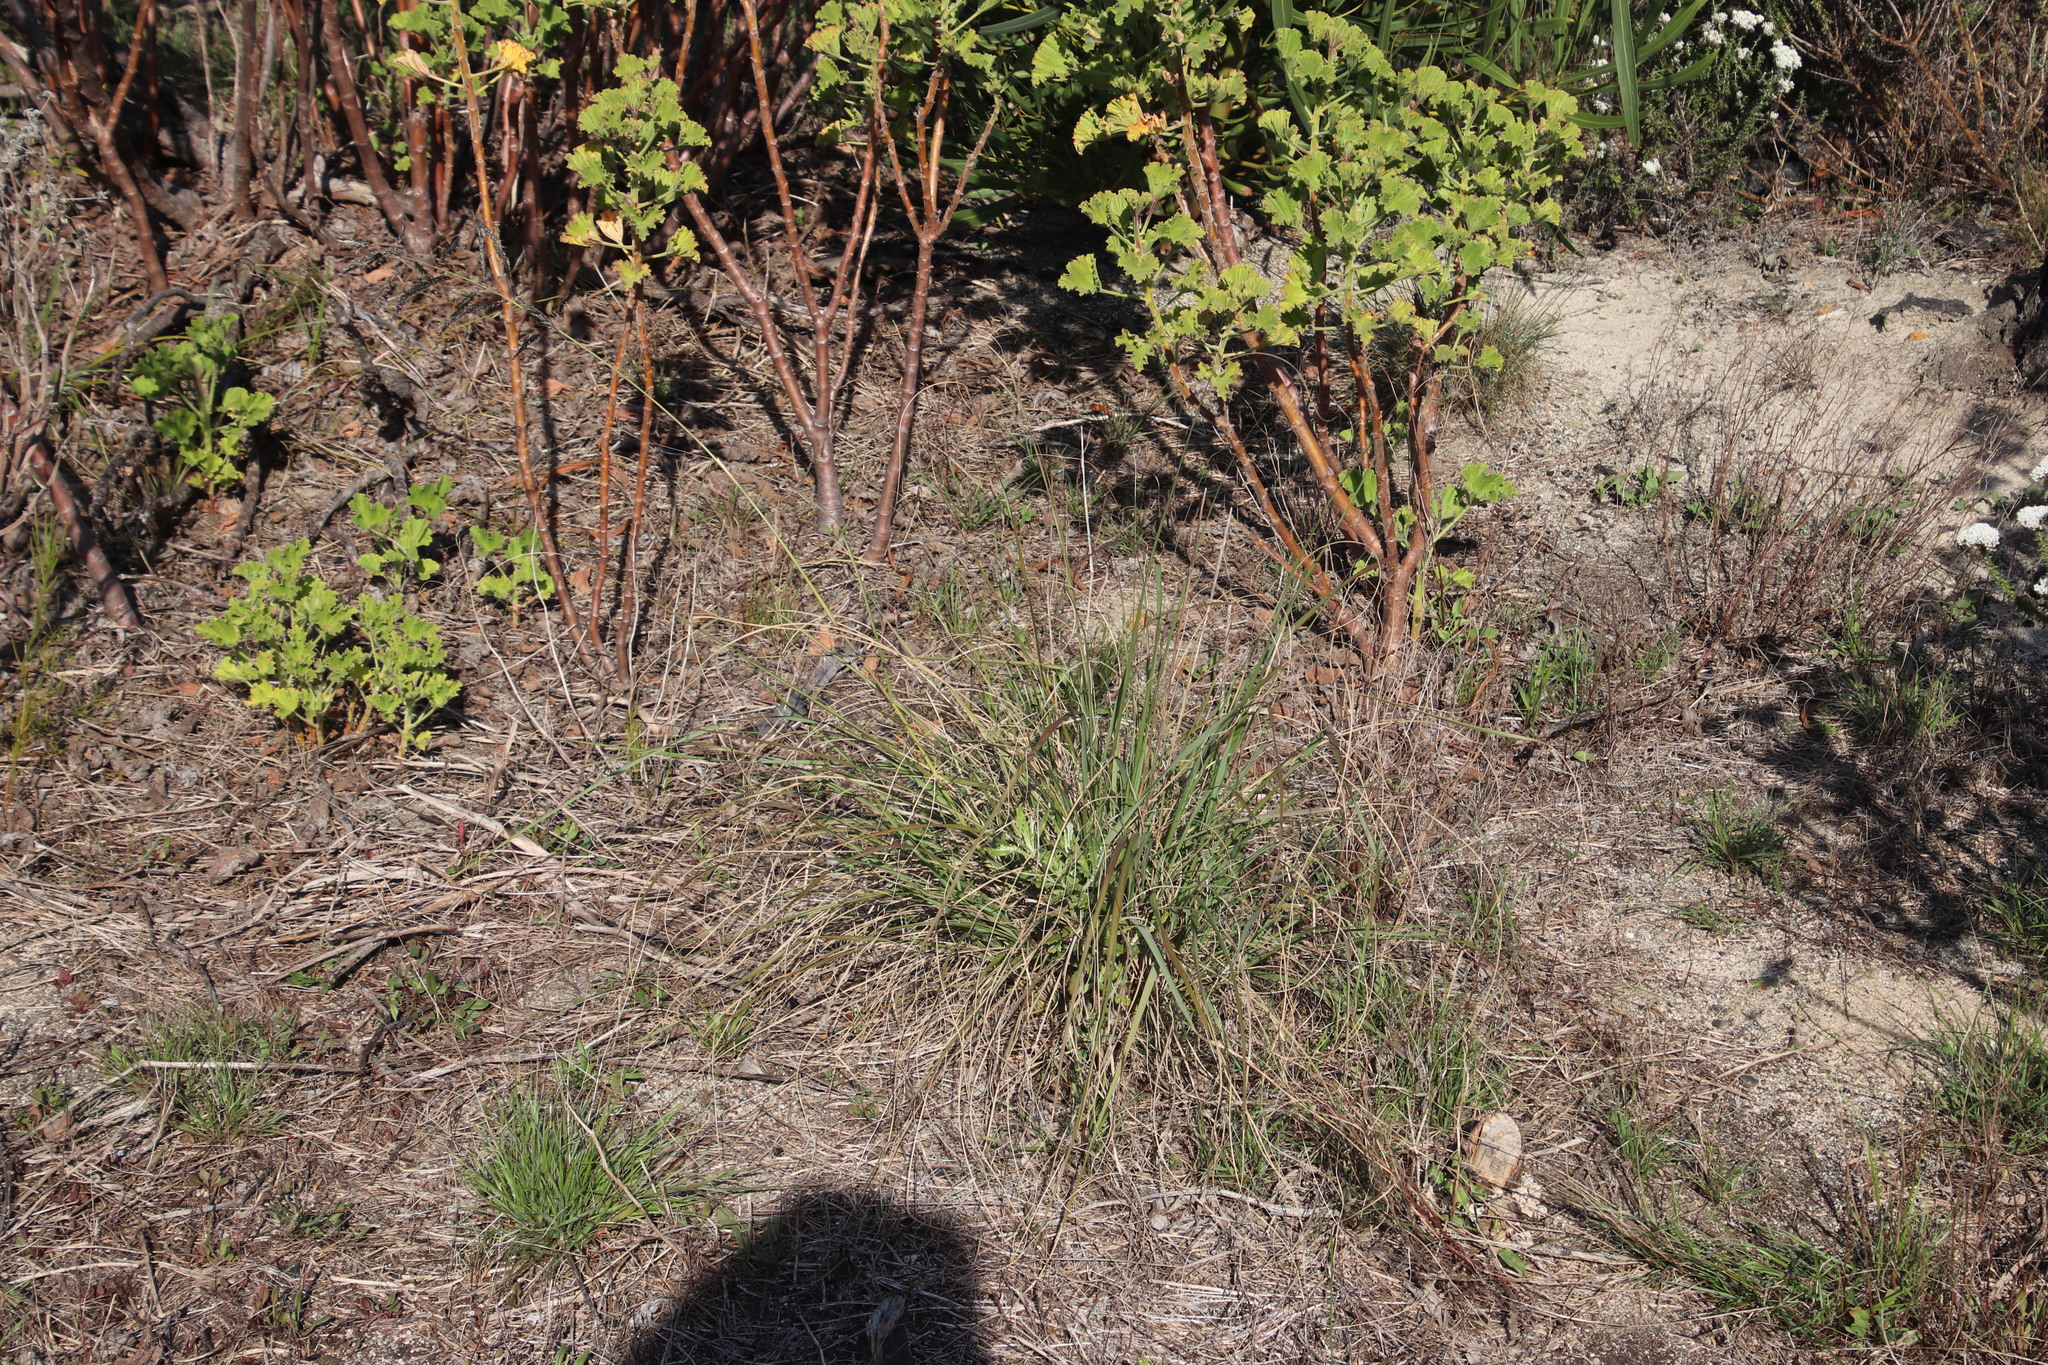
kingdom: Plantae
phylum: Tracheophyta
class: Liliopsida
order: Poales
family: Poaceae
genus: Eragrostis
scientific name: Eragrostis curvula
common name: African love-grass
